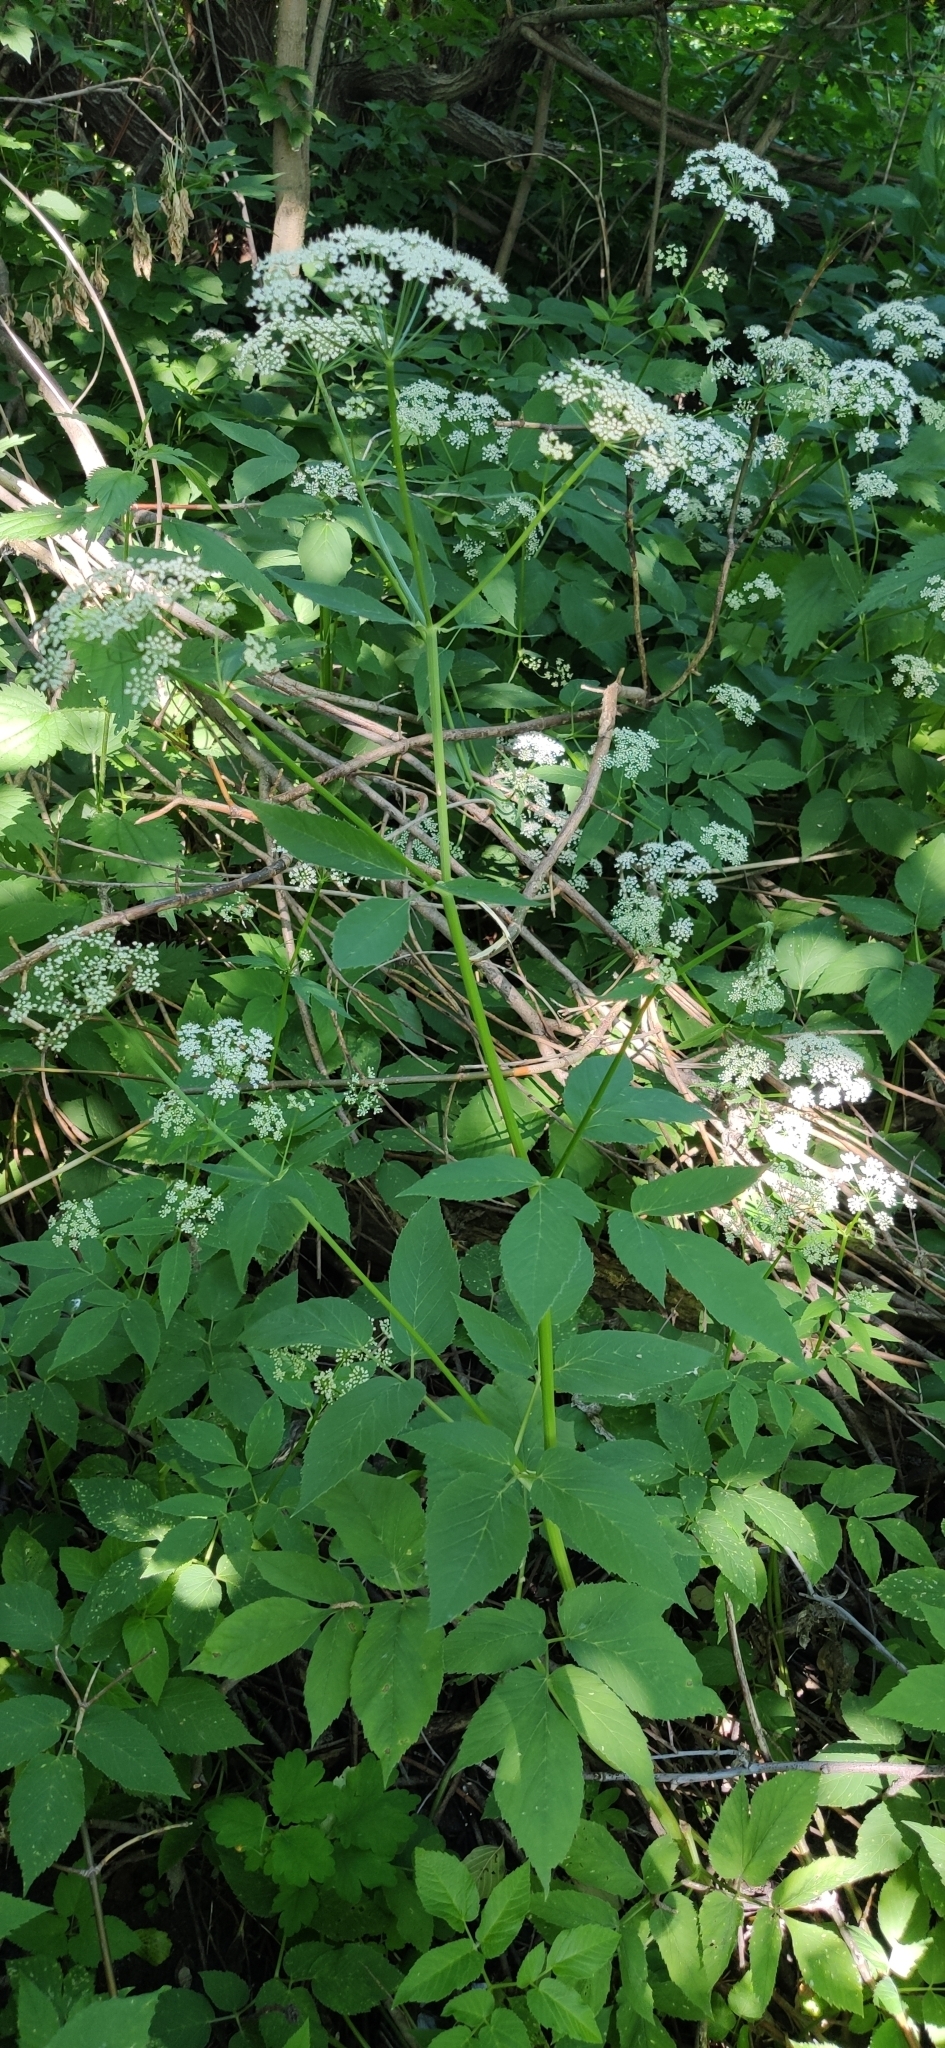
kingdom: Plantae
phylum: Tracheophyta
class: Magnoliopsida
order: Apiales
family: Apiaceae
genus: Aegopodium
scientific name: Aegopodium podagraria
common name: Ground-elder
